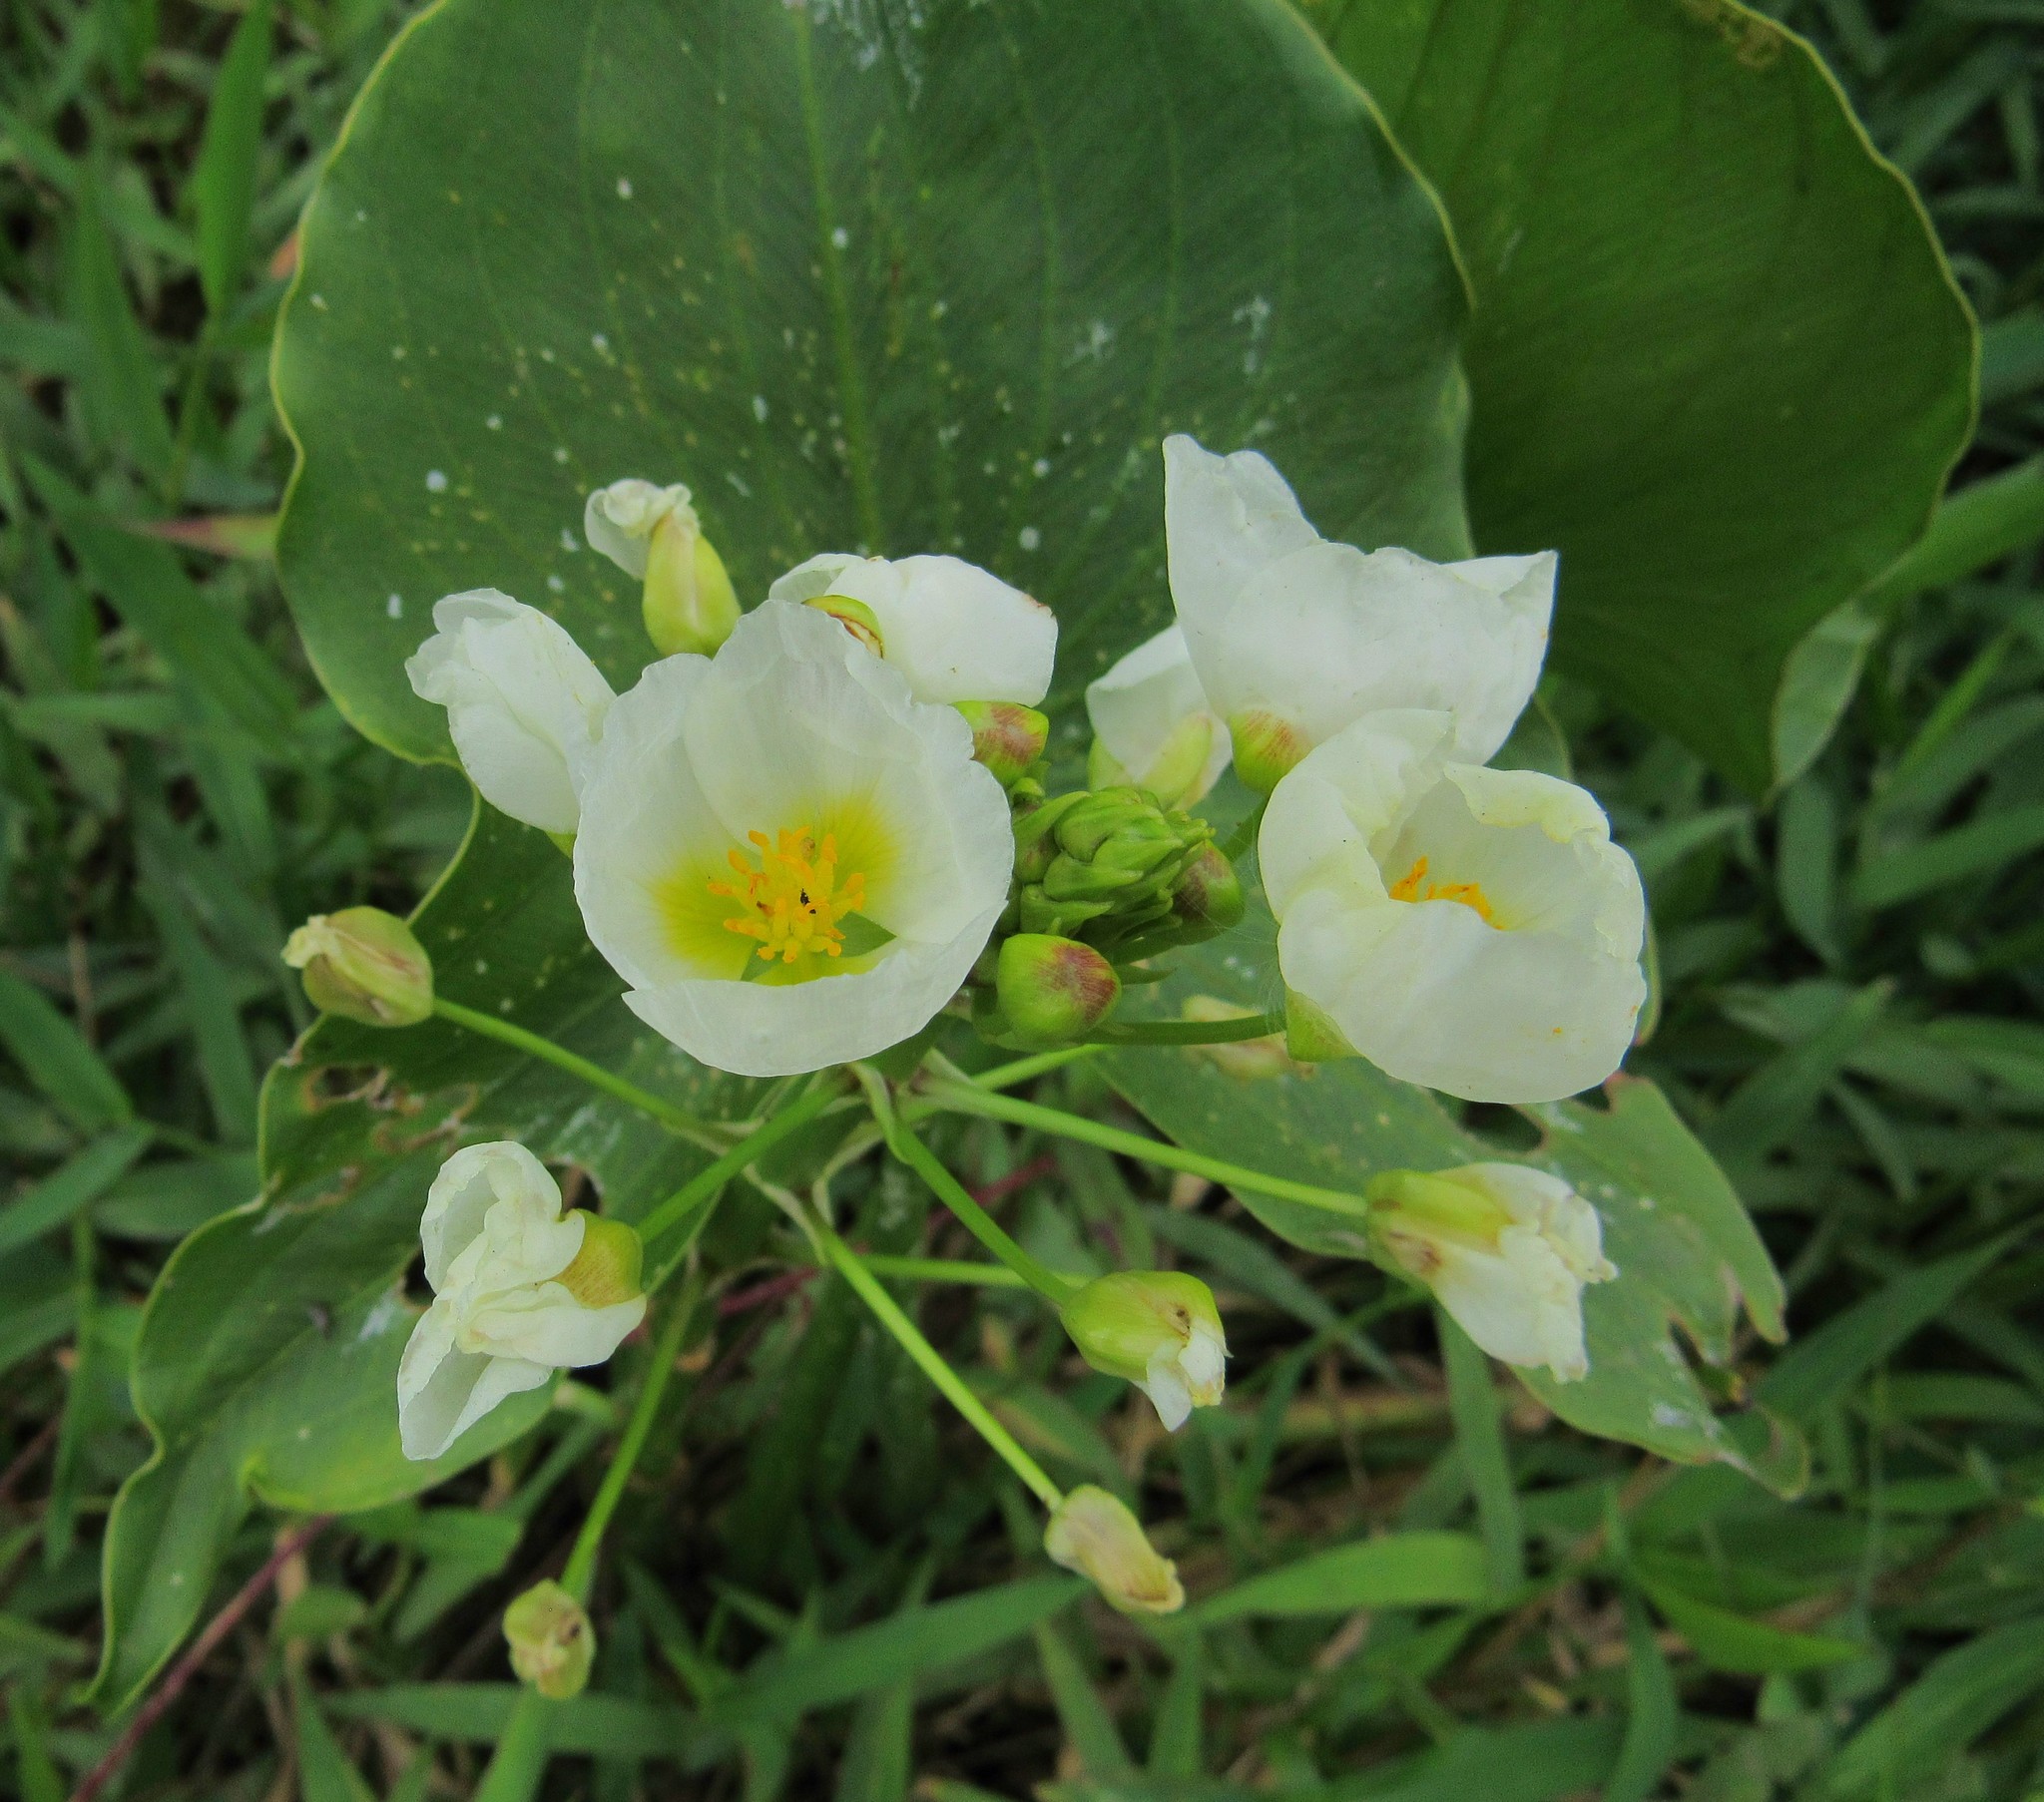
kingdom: Plantae
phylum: Tracheophyta
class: Liliopsida
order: Alismatales
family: Alismataceae
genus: Sagittaria
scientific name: Sagittaria montevidensis
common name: Giant arrowhead
